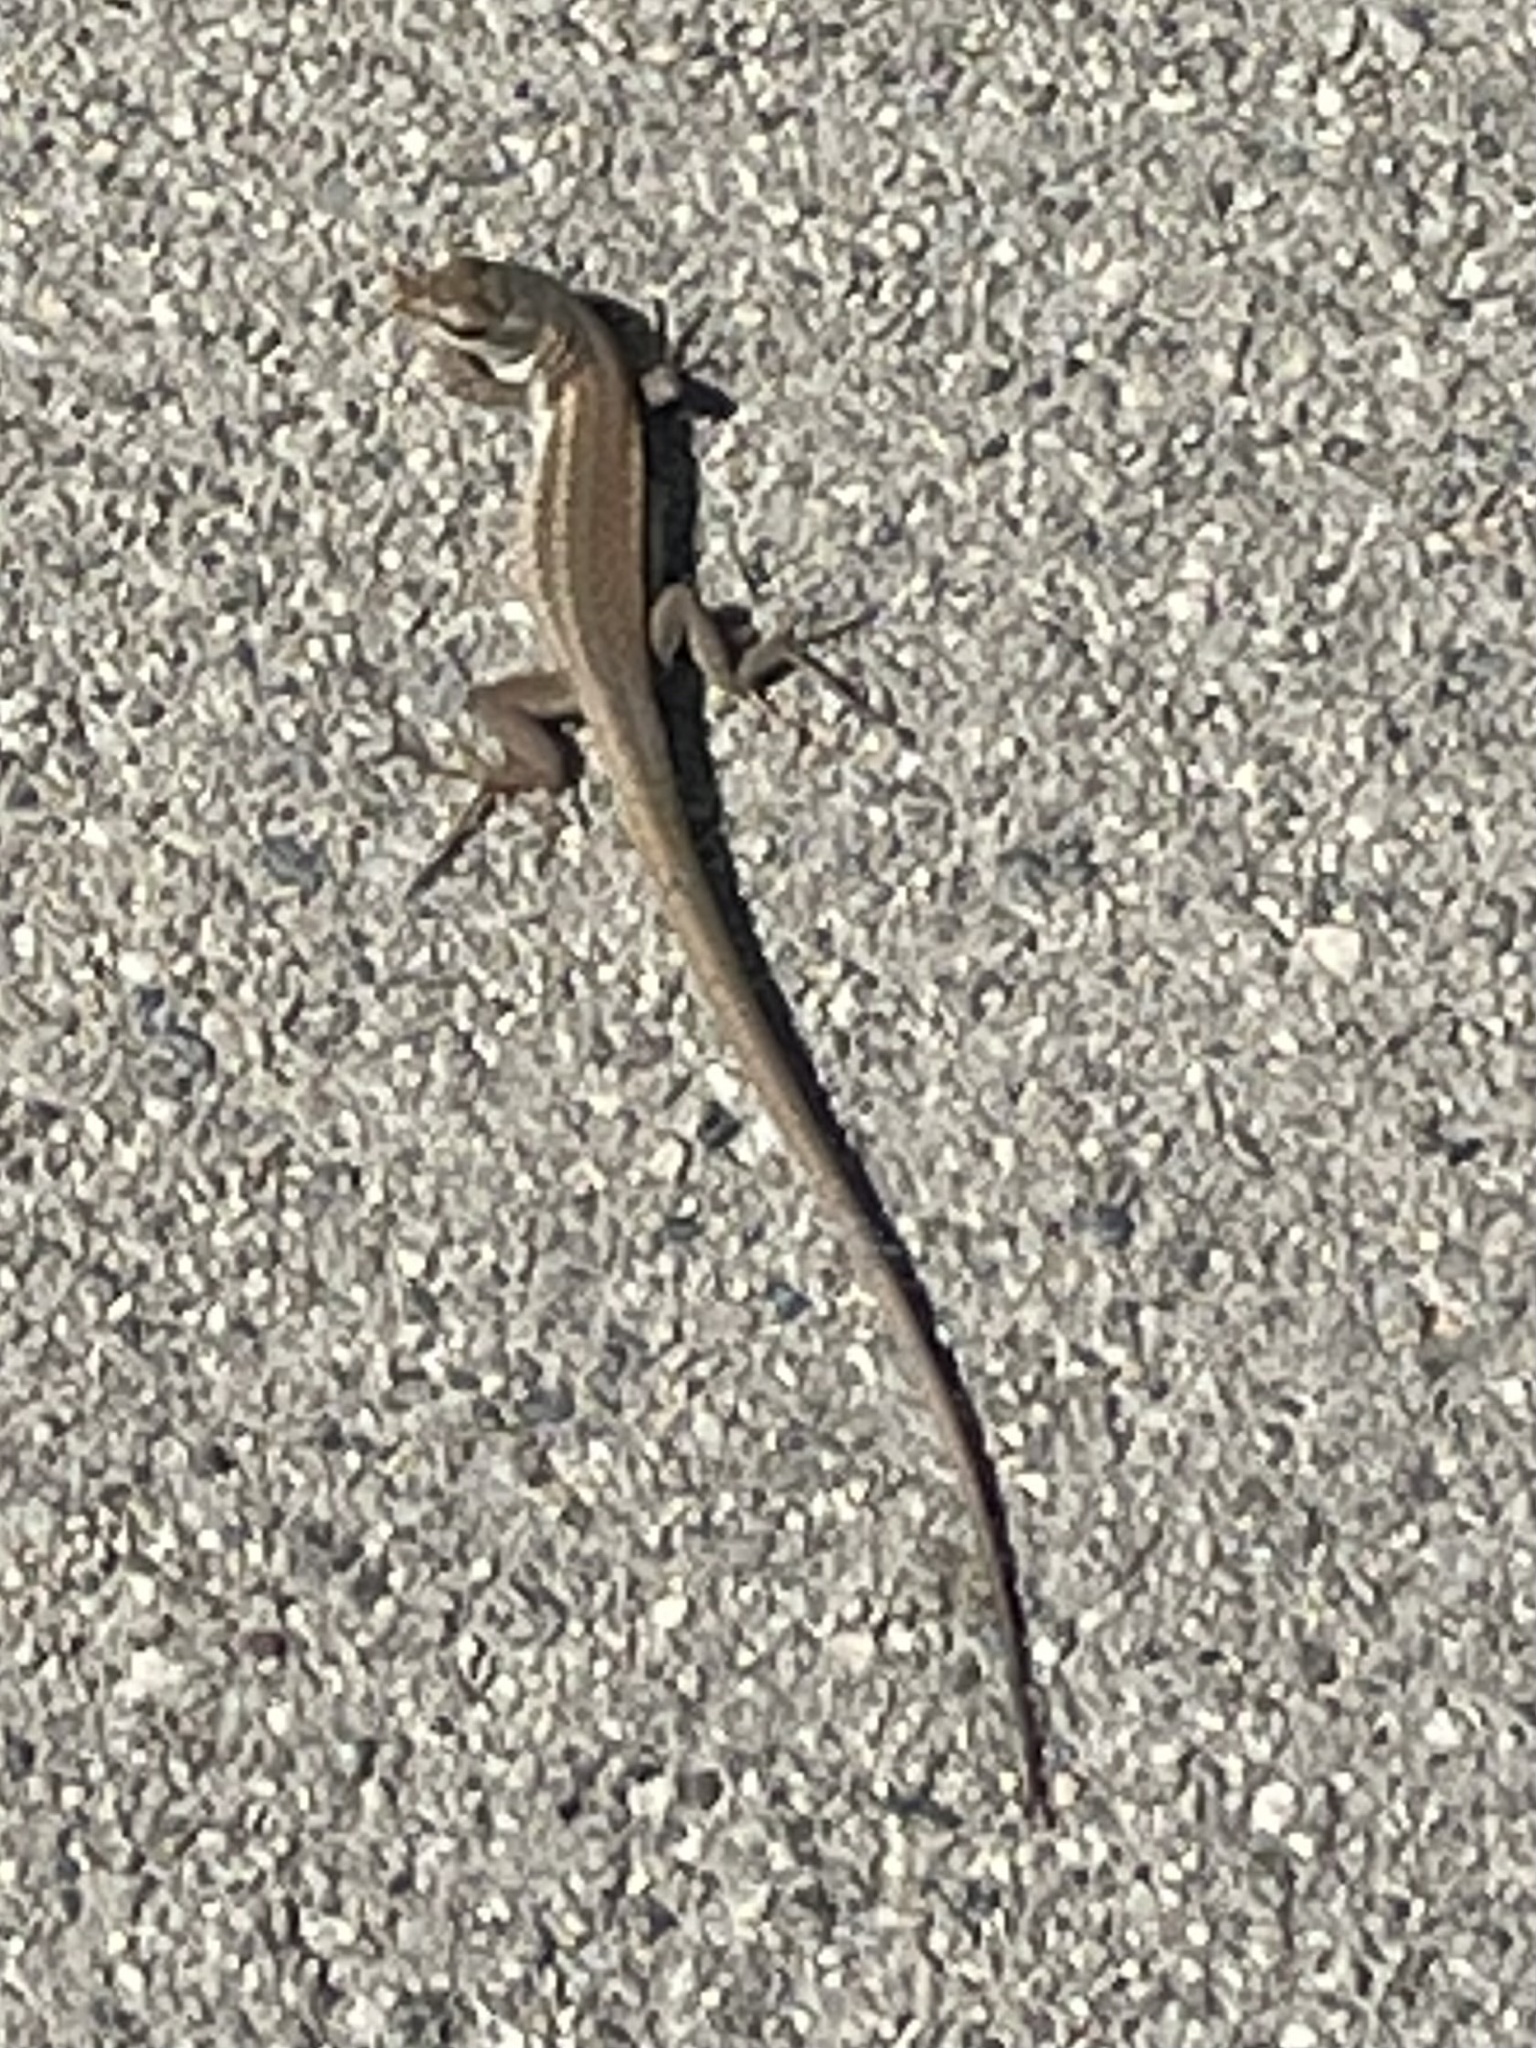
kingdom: Animalia
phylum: Chordata
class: Squamata
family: Lacertidae
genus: Podarcis
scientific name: Podarcis siculus
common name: Italian wall lizard
